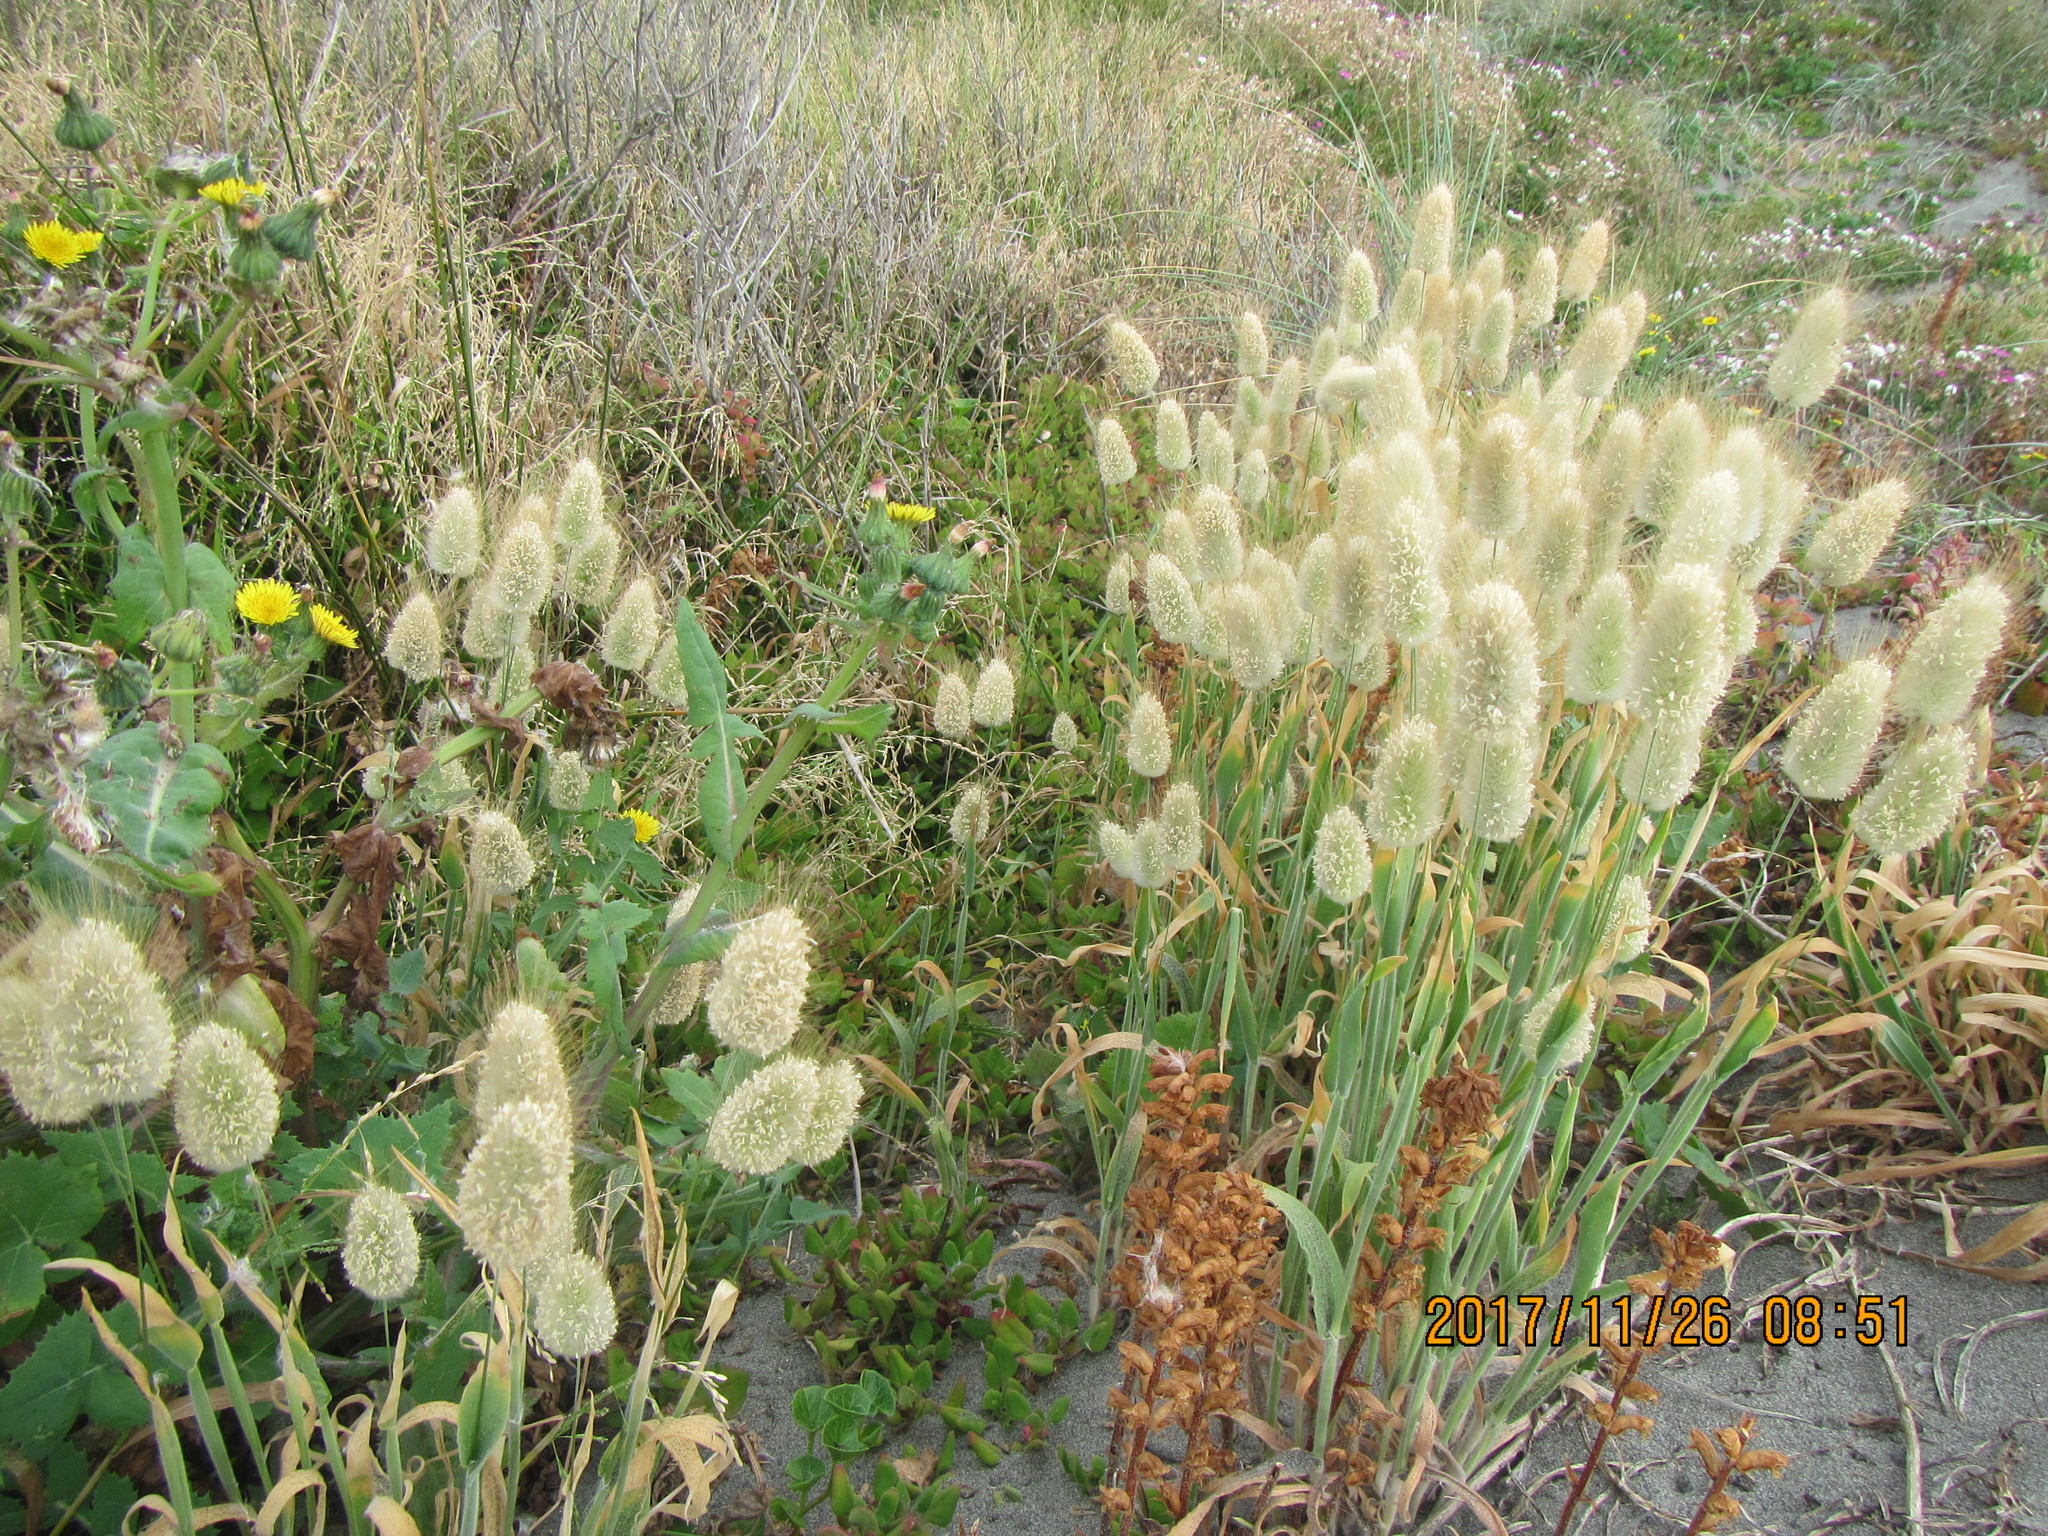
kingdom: Plantae
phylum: Tracheophyta
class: Liliopsida
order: Poales
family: Poaceae
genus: Lagurus
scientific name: Lagurus ovatus
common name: Hare's-tail
